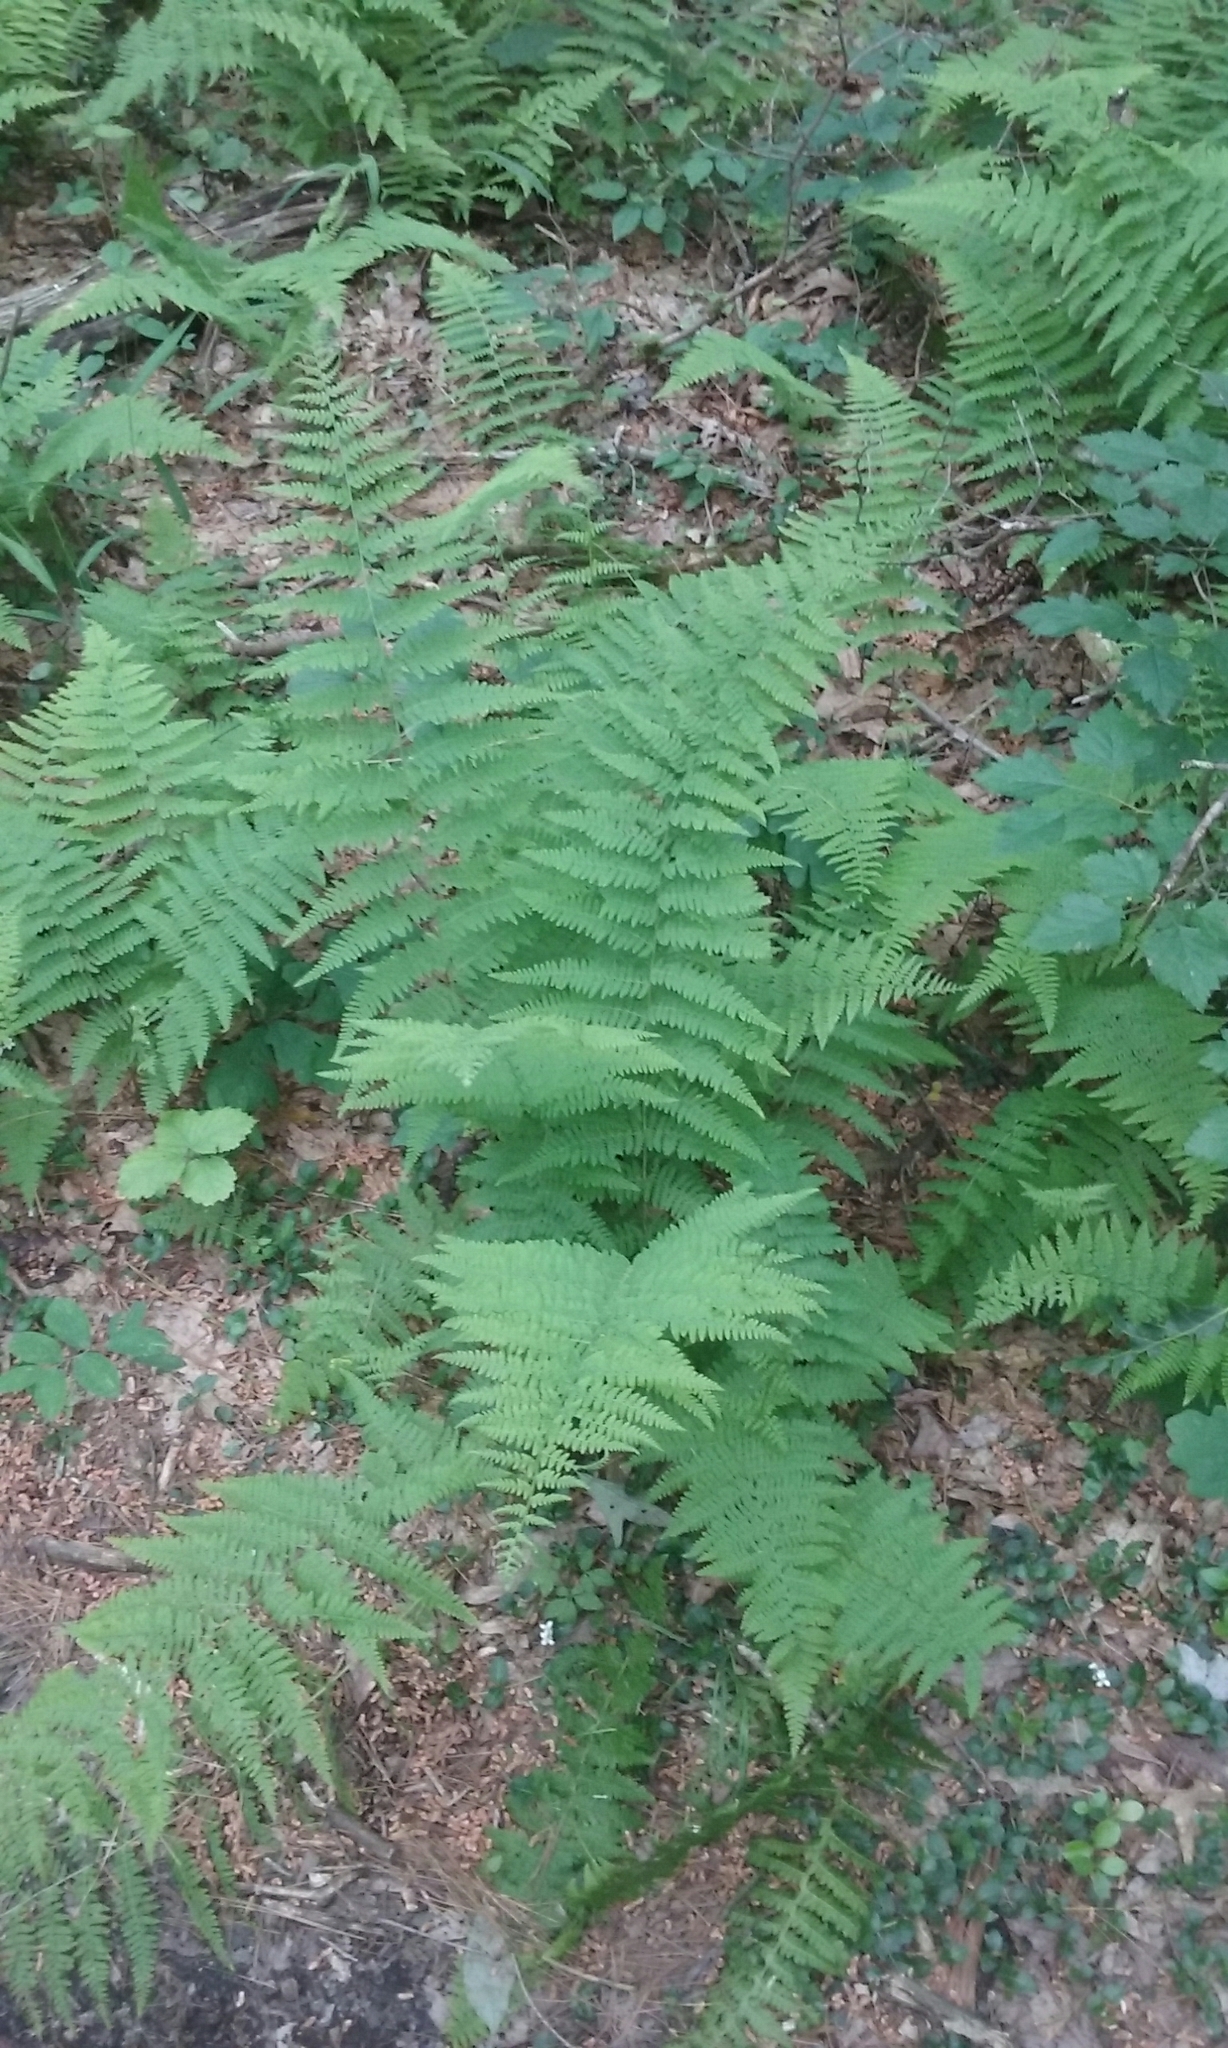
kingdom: Plantae
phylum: Tracheophyta
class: Polypodiopsida
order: Polypodiales
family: Dennstaedtiaceae
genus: Sitobolium
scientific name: Sitobolium punctilobum
